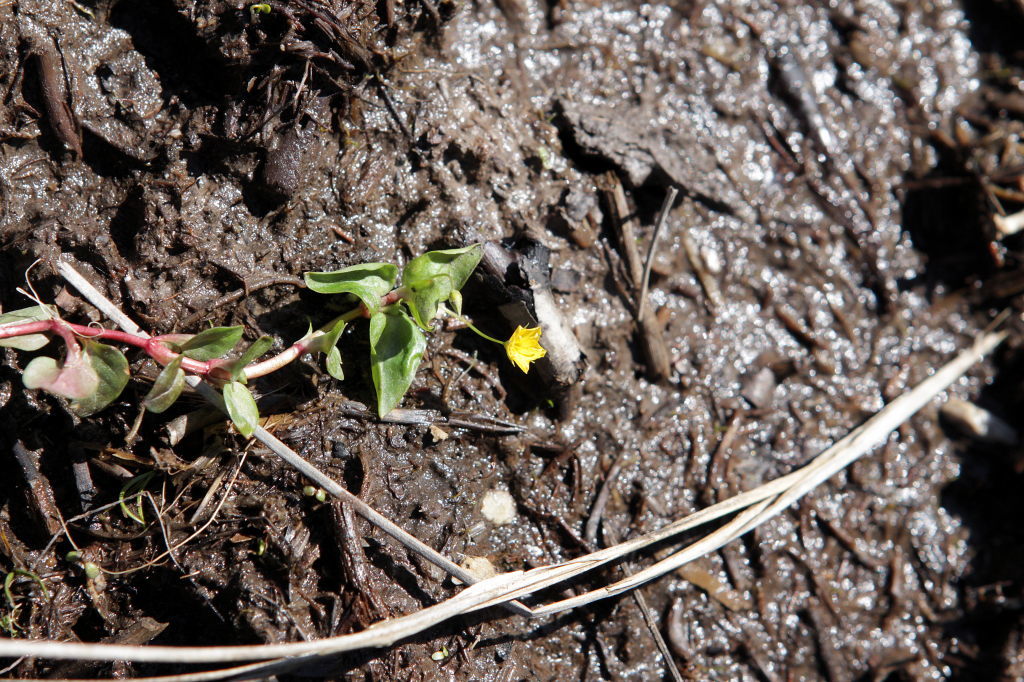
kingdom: Plantae
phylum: Tracheophyta
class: Magnoliopsida
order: Ericales
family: Primulaceae
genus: Lysimachia
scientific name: Lysimachia nemorum
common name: Yellow pimpernel
